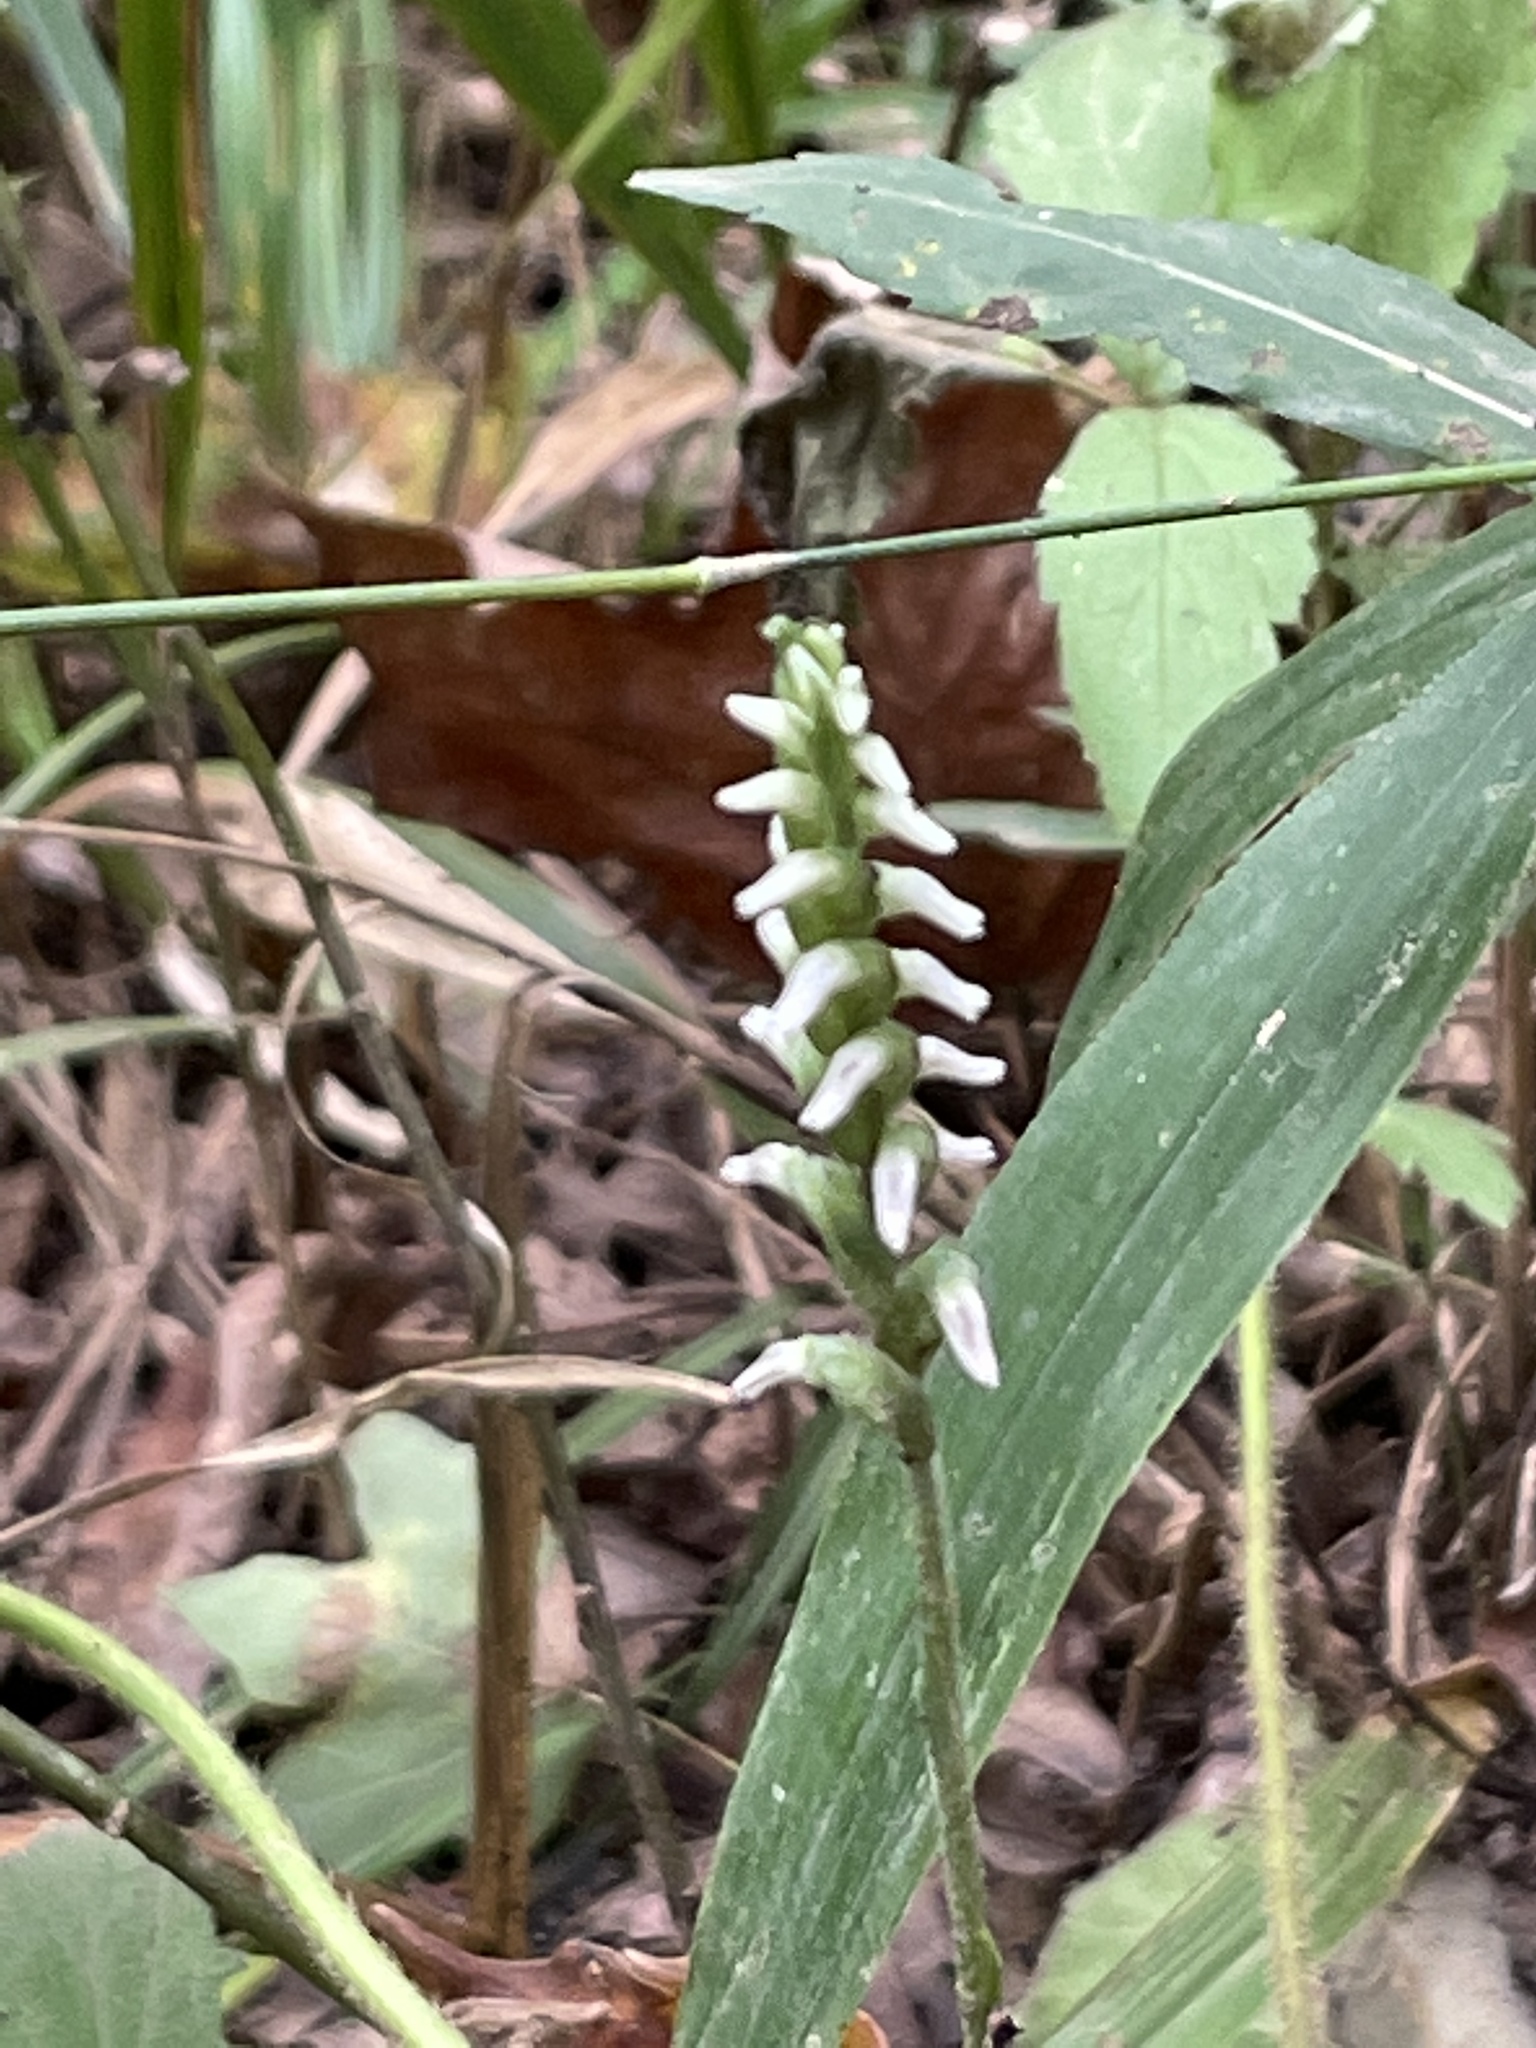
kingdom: Plantae
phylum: Tracheophyta
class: Liliopsida
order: Asparagales
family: Orchidaceae
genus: Spiranthes
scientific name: Spiranthes ovalis
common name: October ladies'-tresses
